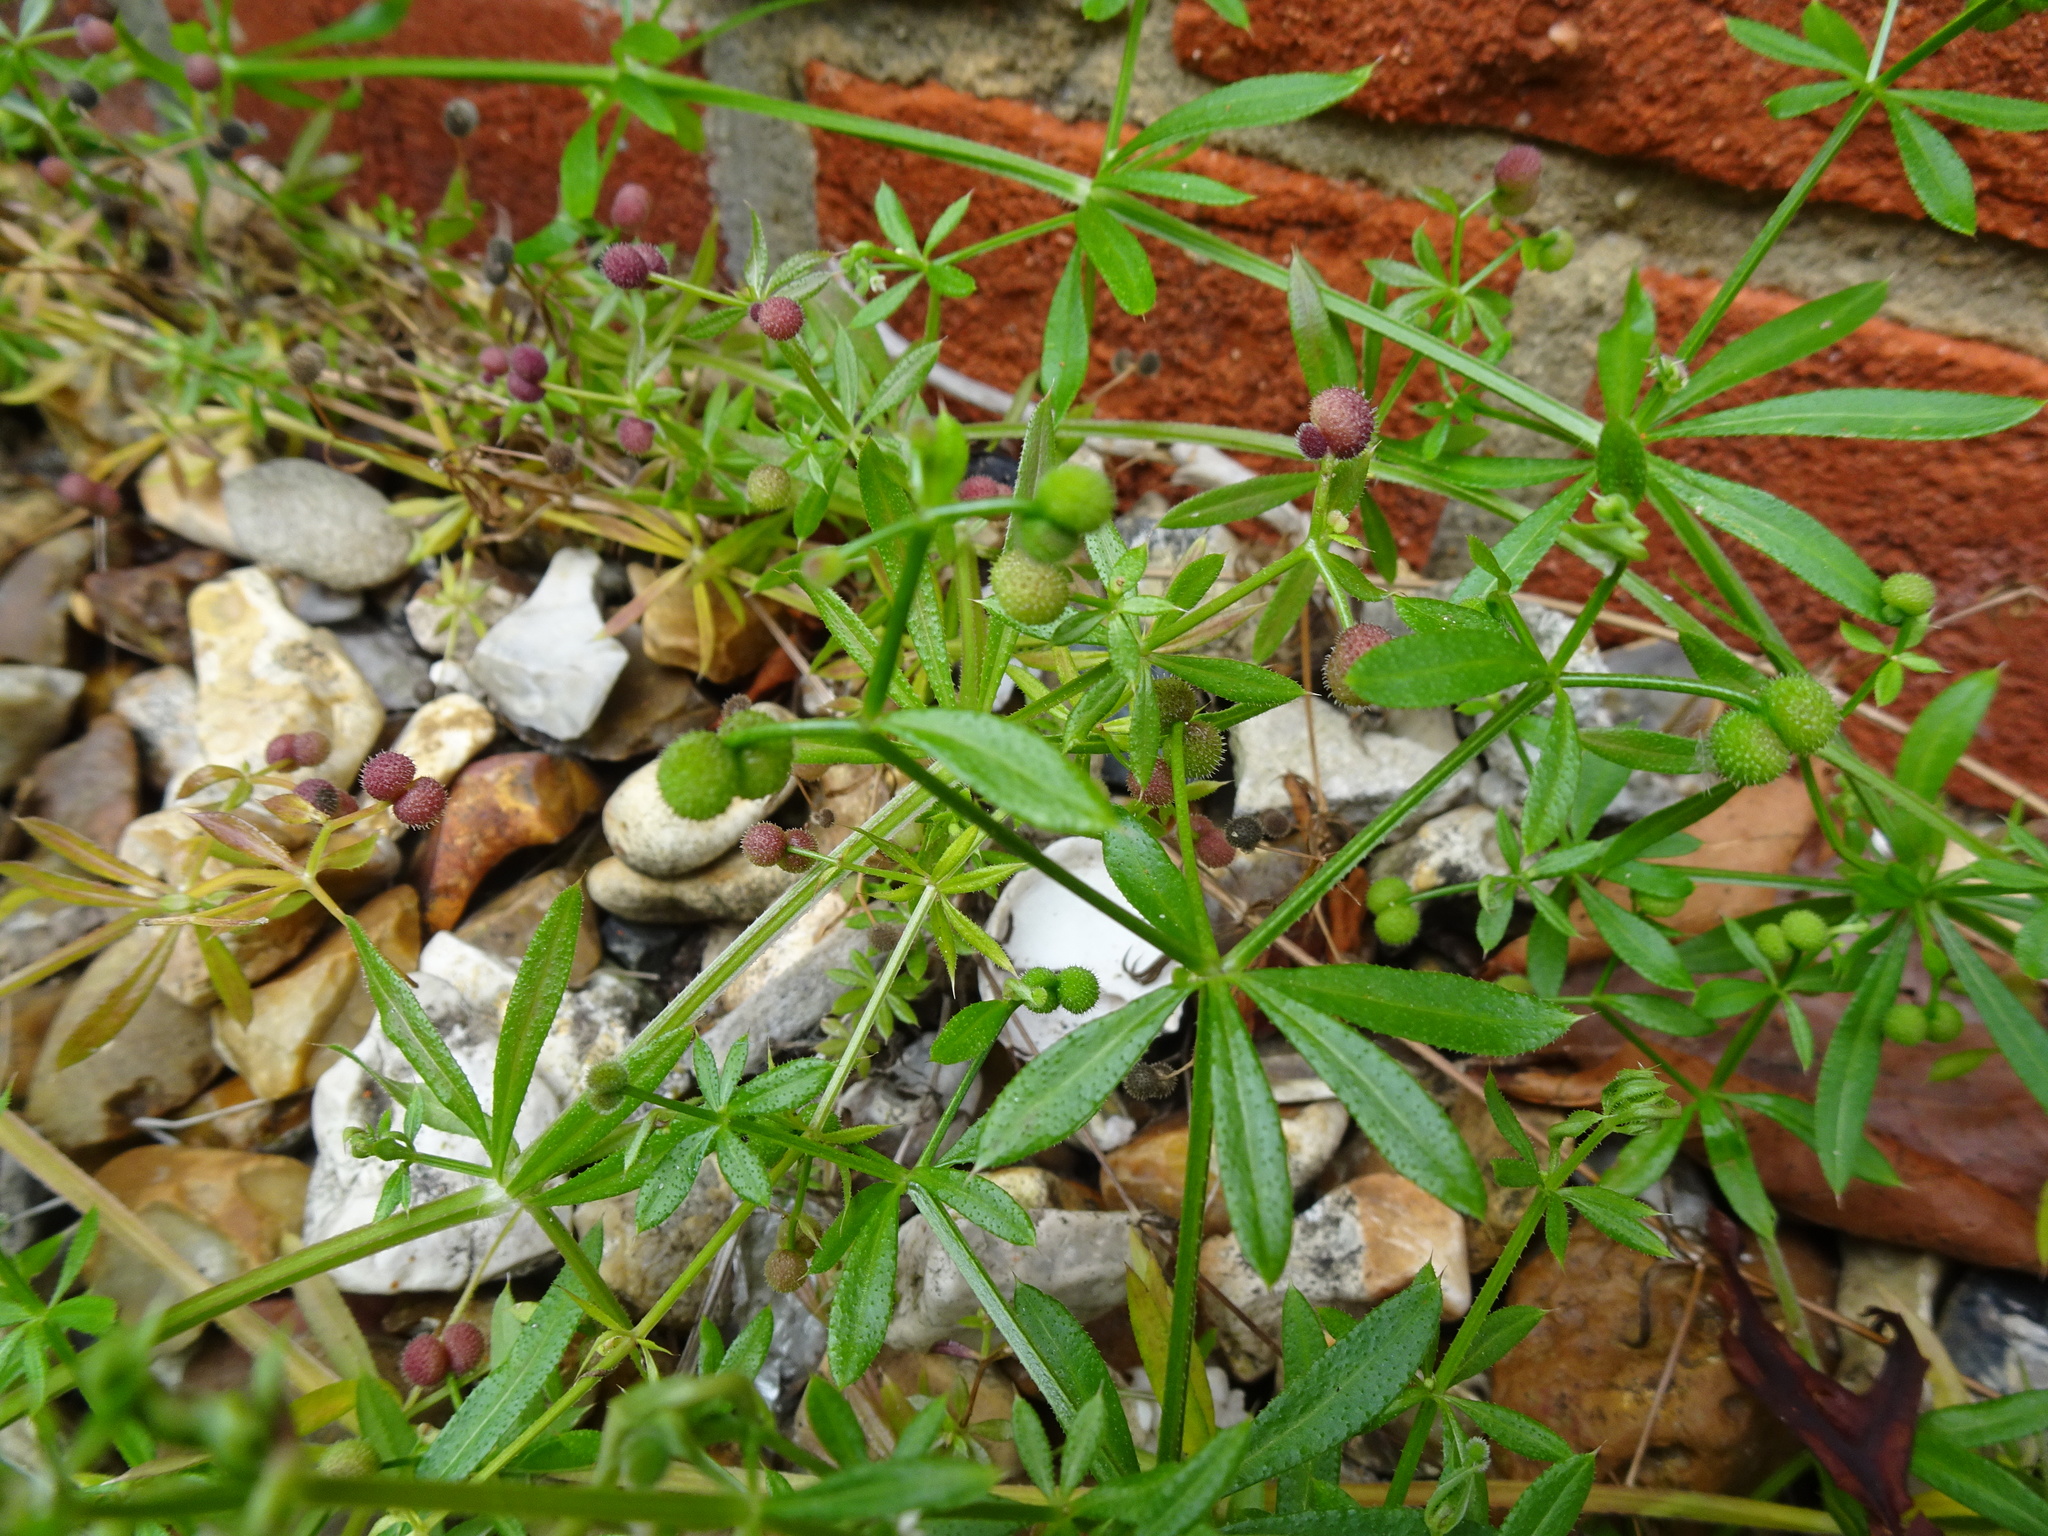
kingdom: Plantae
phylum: Tracheophyta
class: Magnoliopsida
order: Gentianales
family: Rubiaceae
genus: Galium
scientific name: Galium aparine
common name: Cleavers
